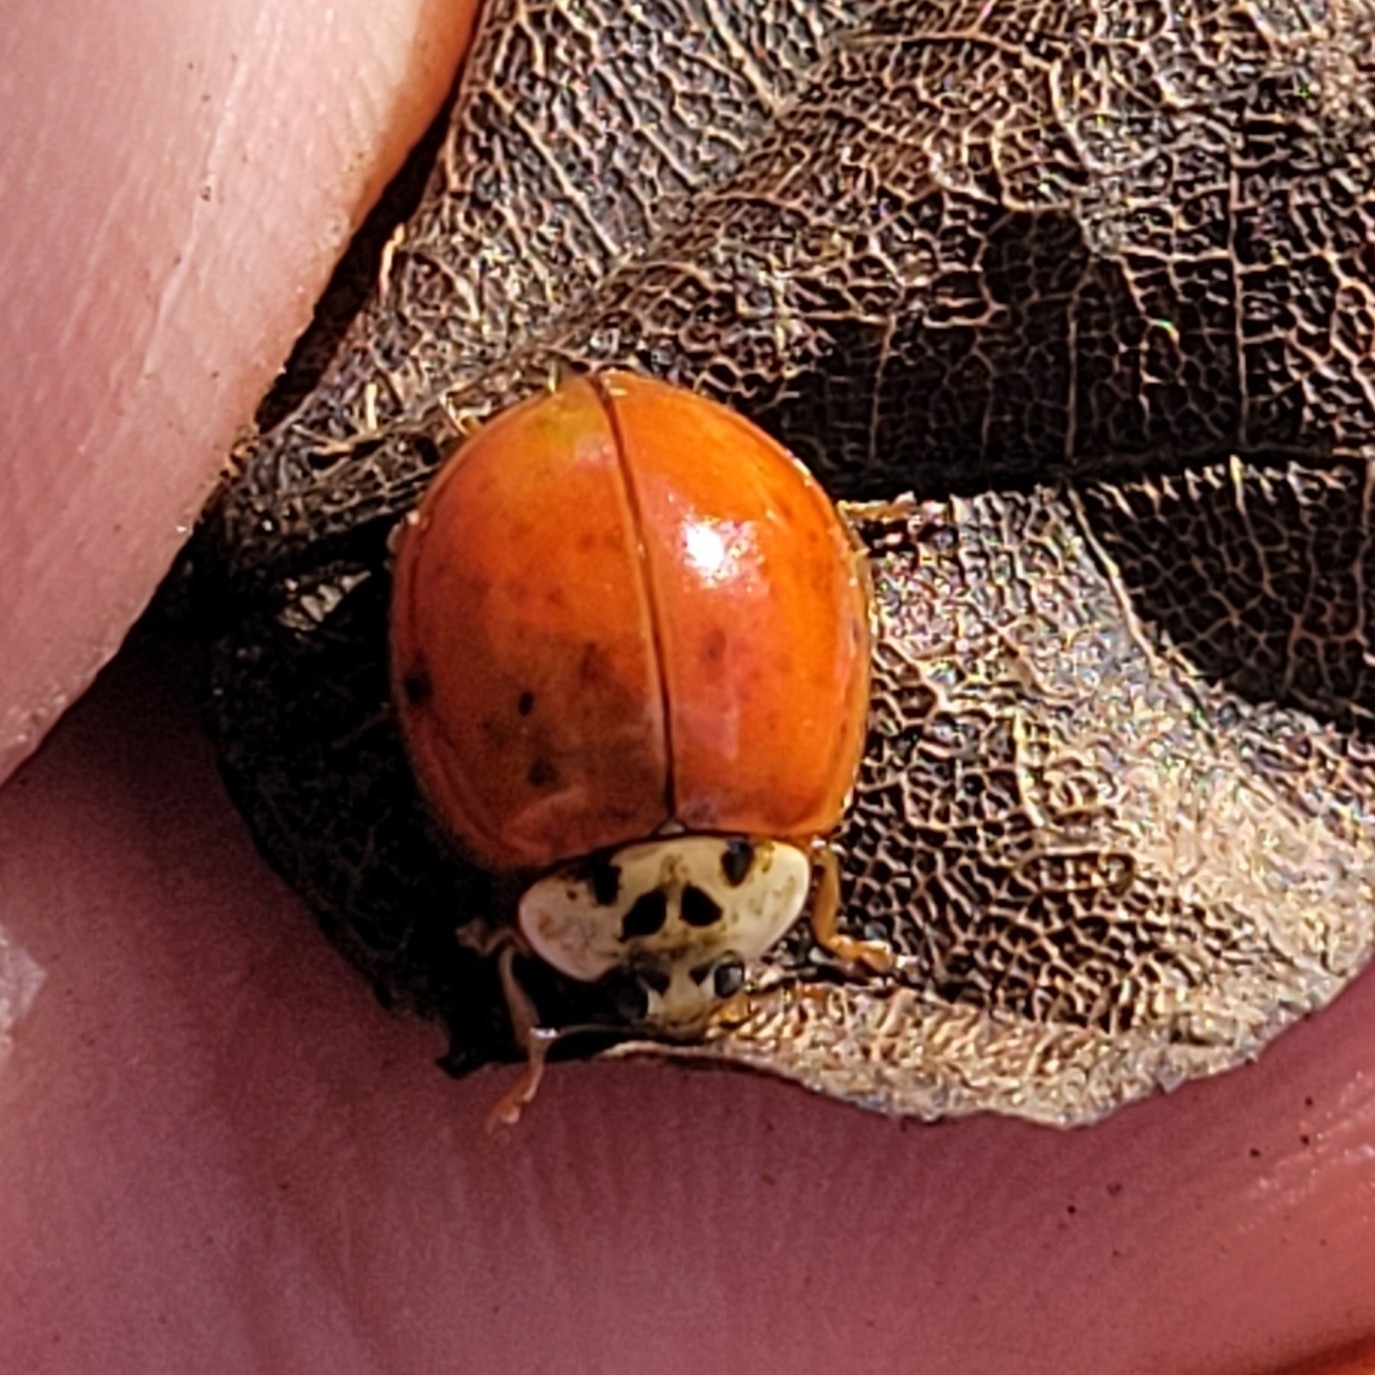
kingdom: Animalia
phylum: Arthropoda
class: Insecta
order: Coleoptera
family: Coccinellidae
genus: Harmonia
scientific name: Harmonia axyridis
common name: Harlequin ladybird
